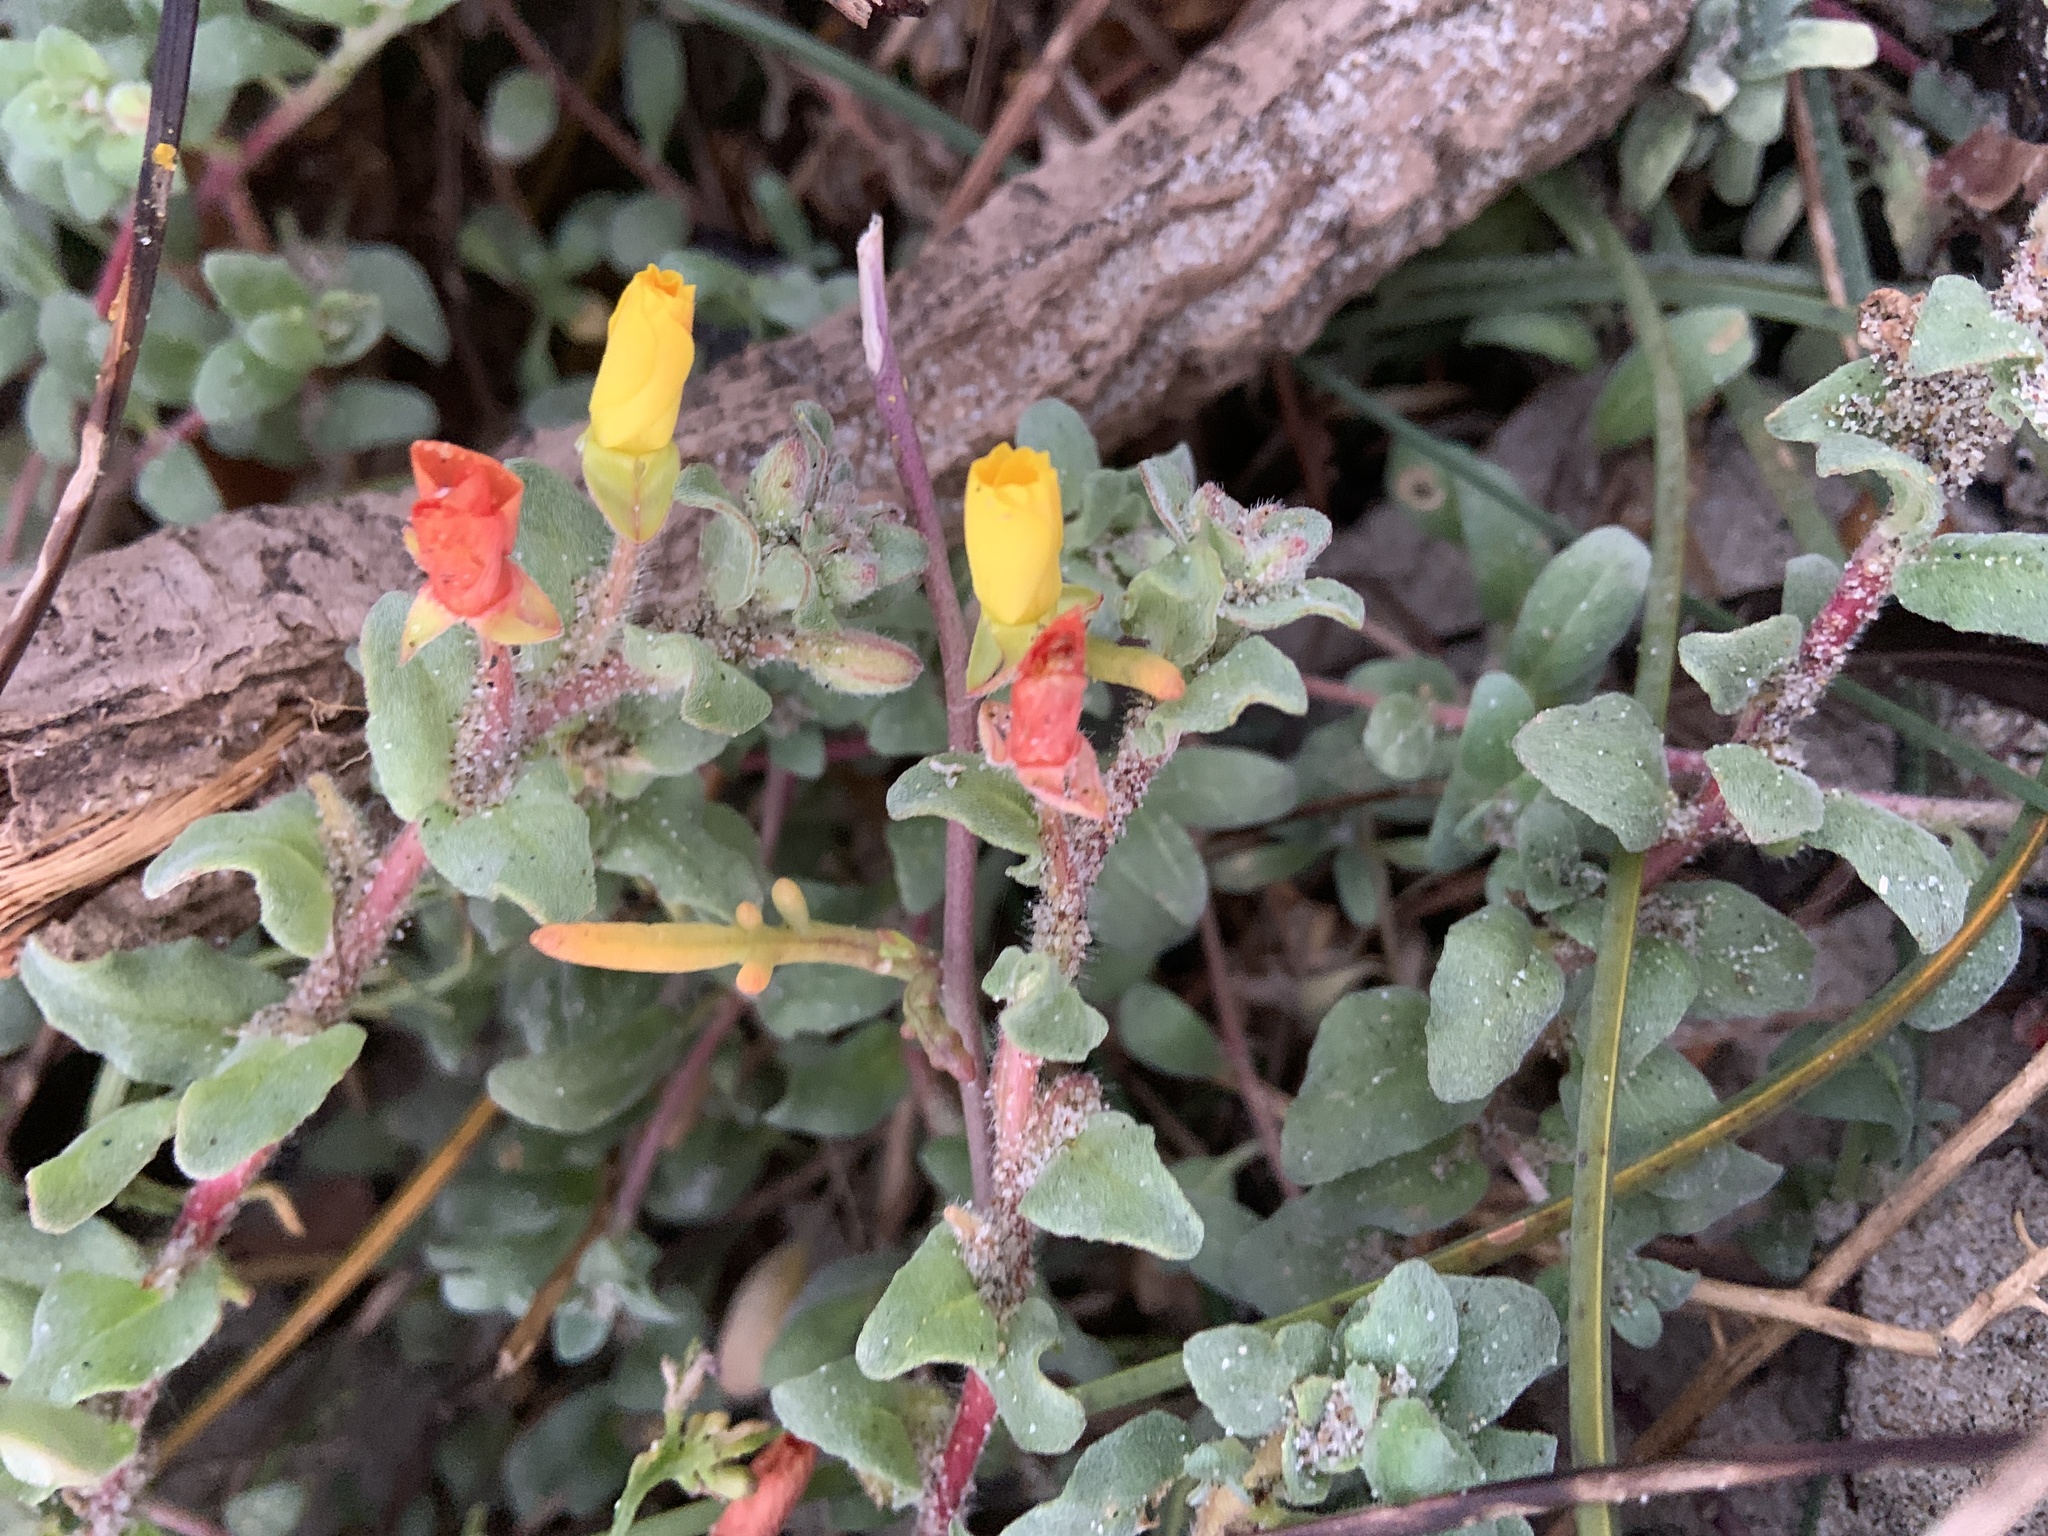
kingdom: Plantae
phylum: Tracheophyta
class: Magnoliopsida
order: Myrtales
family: Onagraceae
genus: Camissoniopsis
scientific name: Camissoniopsis cheiranthifolia
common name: Beach suncup
